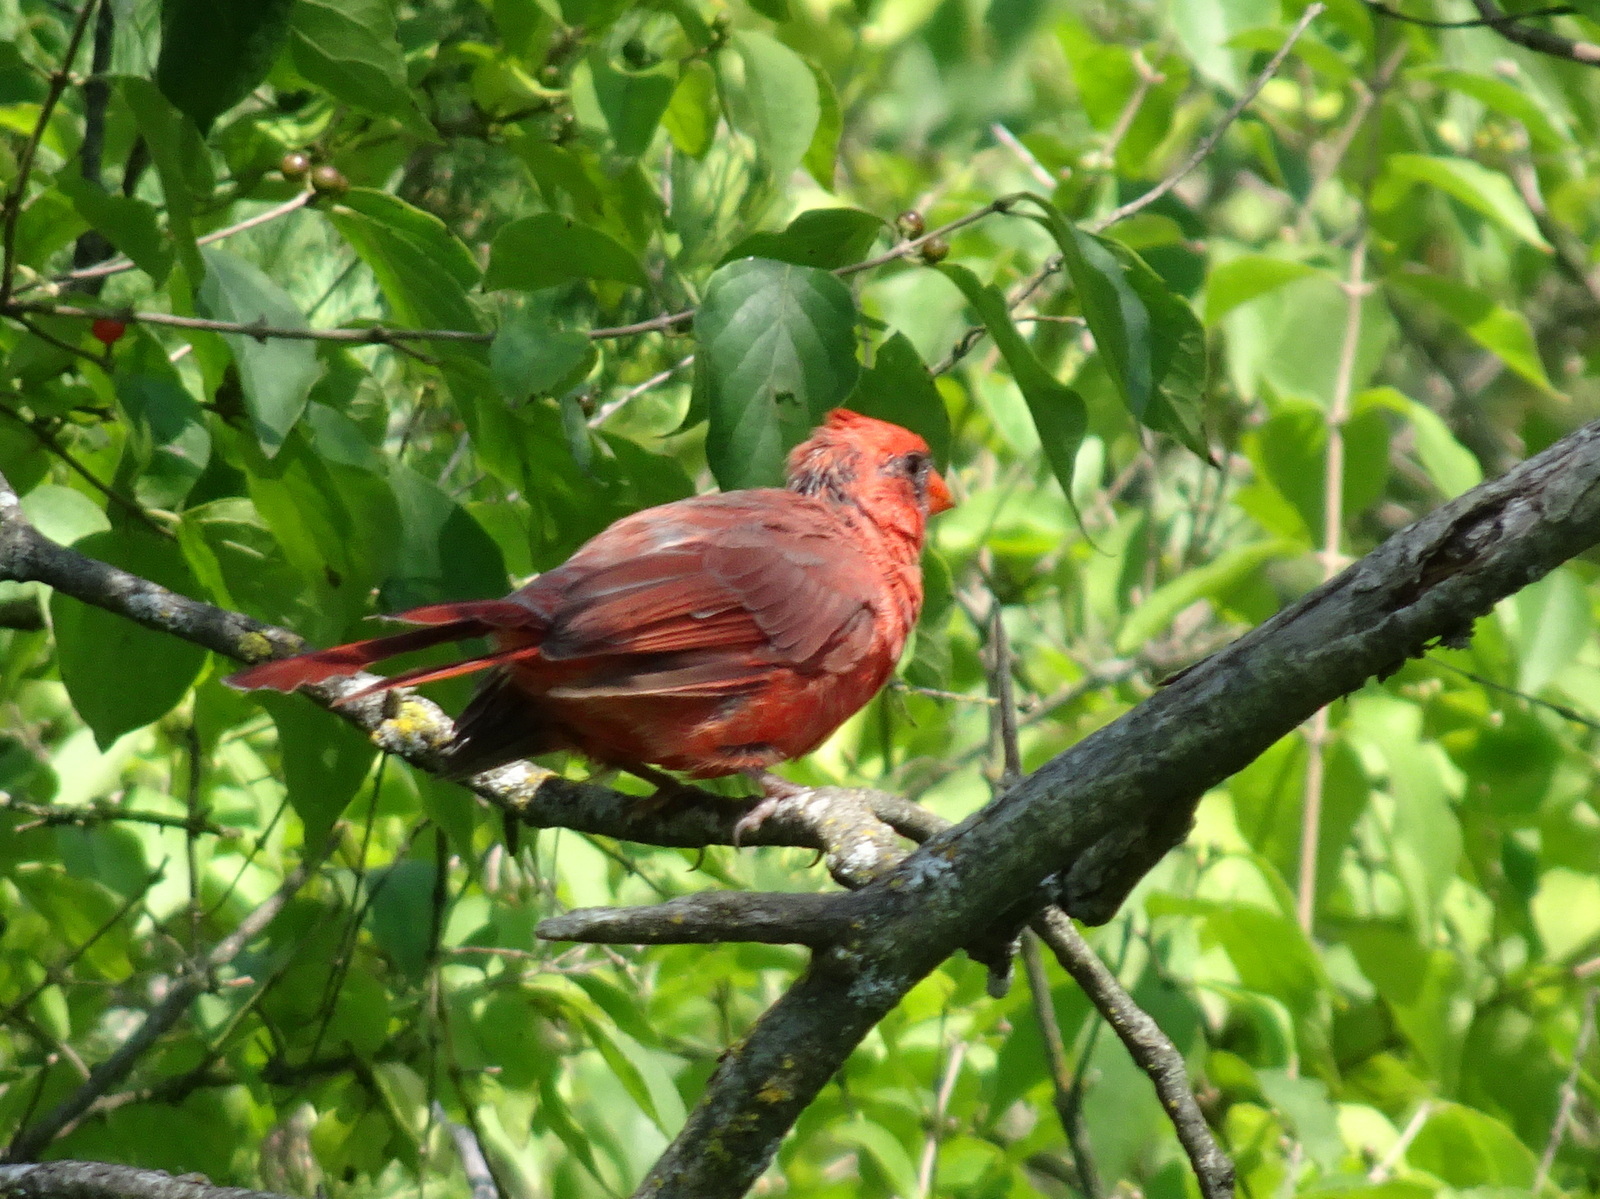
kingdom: Animalia
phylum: Chordata
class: Aves
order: Passeriformes
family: Cardinalidae
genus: Cardinalis
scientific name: Cardinalis cardinalis
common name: Northern cardinal
